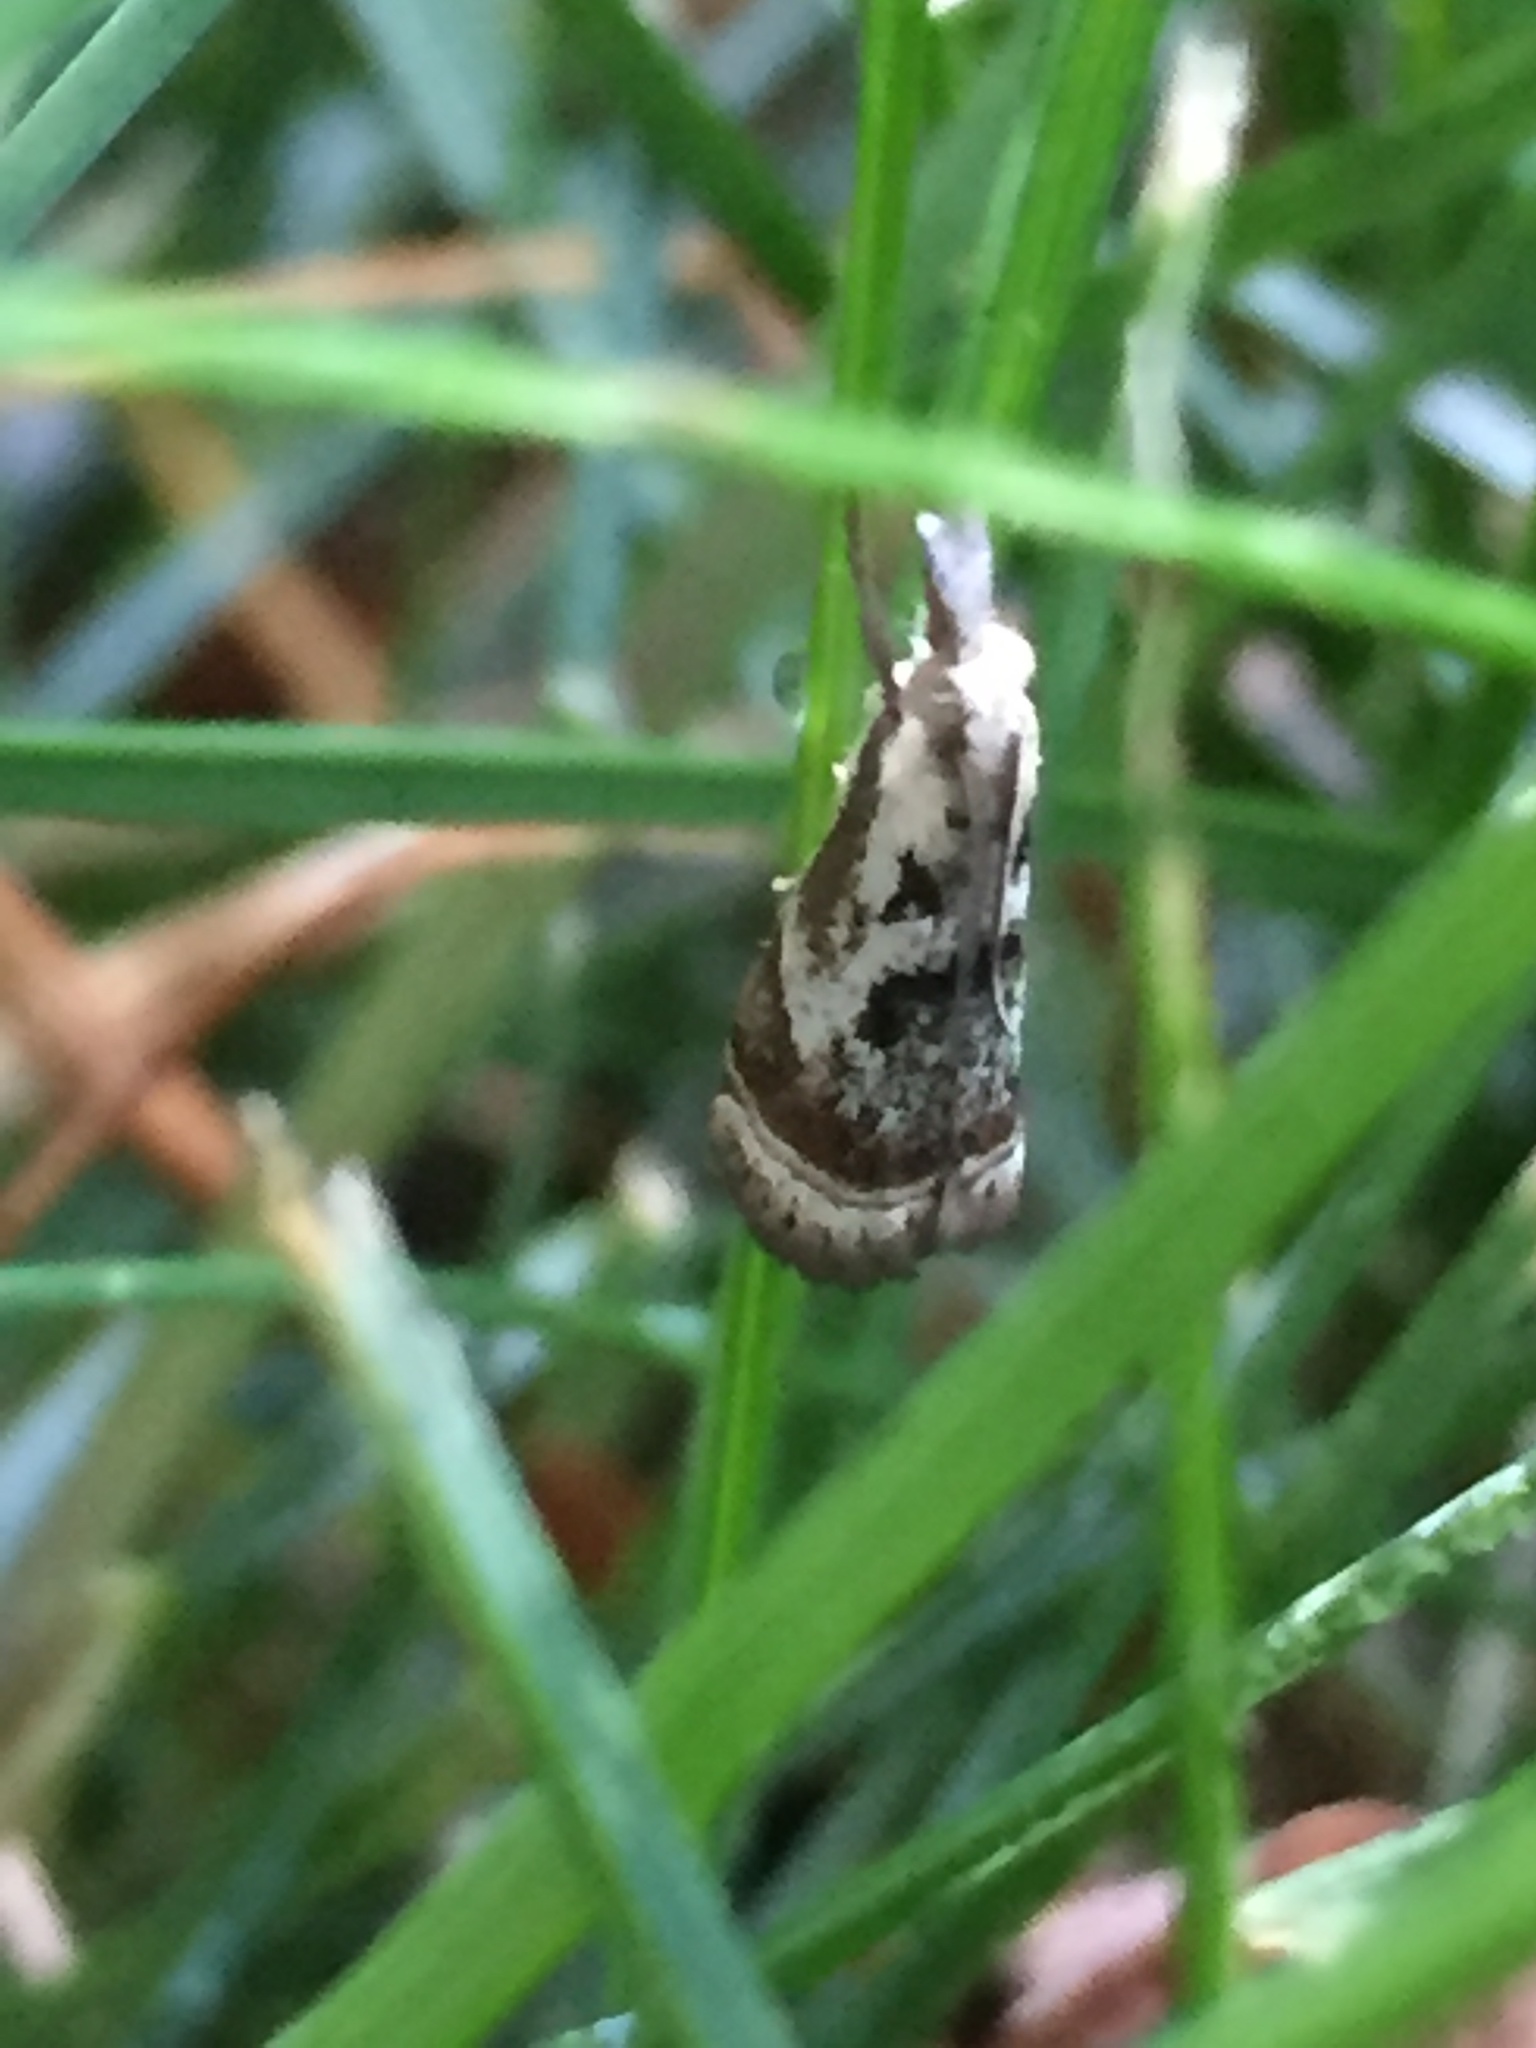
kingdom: Animalia
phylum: Arthropoda
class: Insecta
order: Lepidoptera
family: Crambidae
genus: Microcrambus
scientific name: Microcrambus elegans
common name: Elegant grass-veneer
